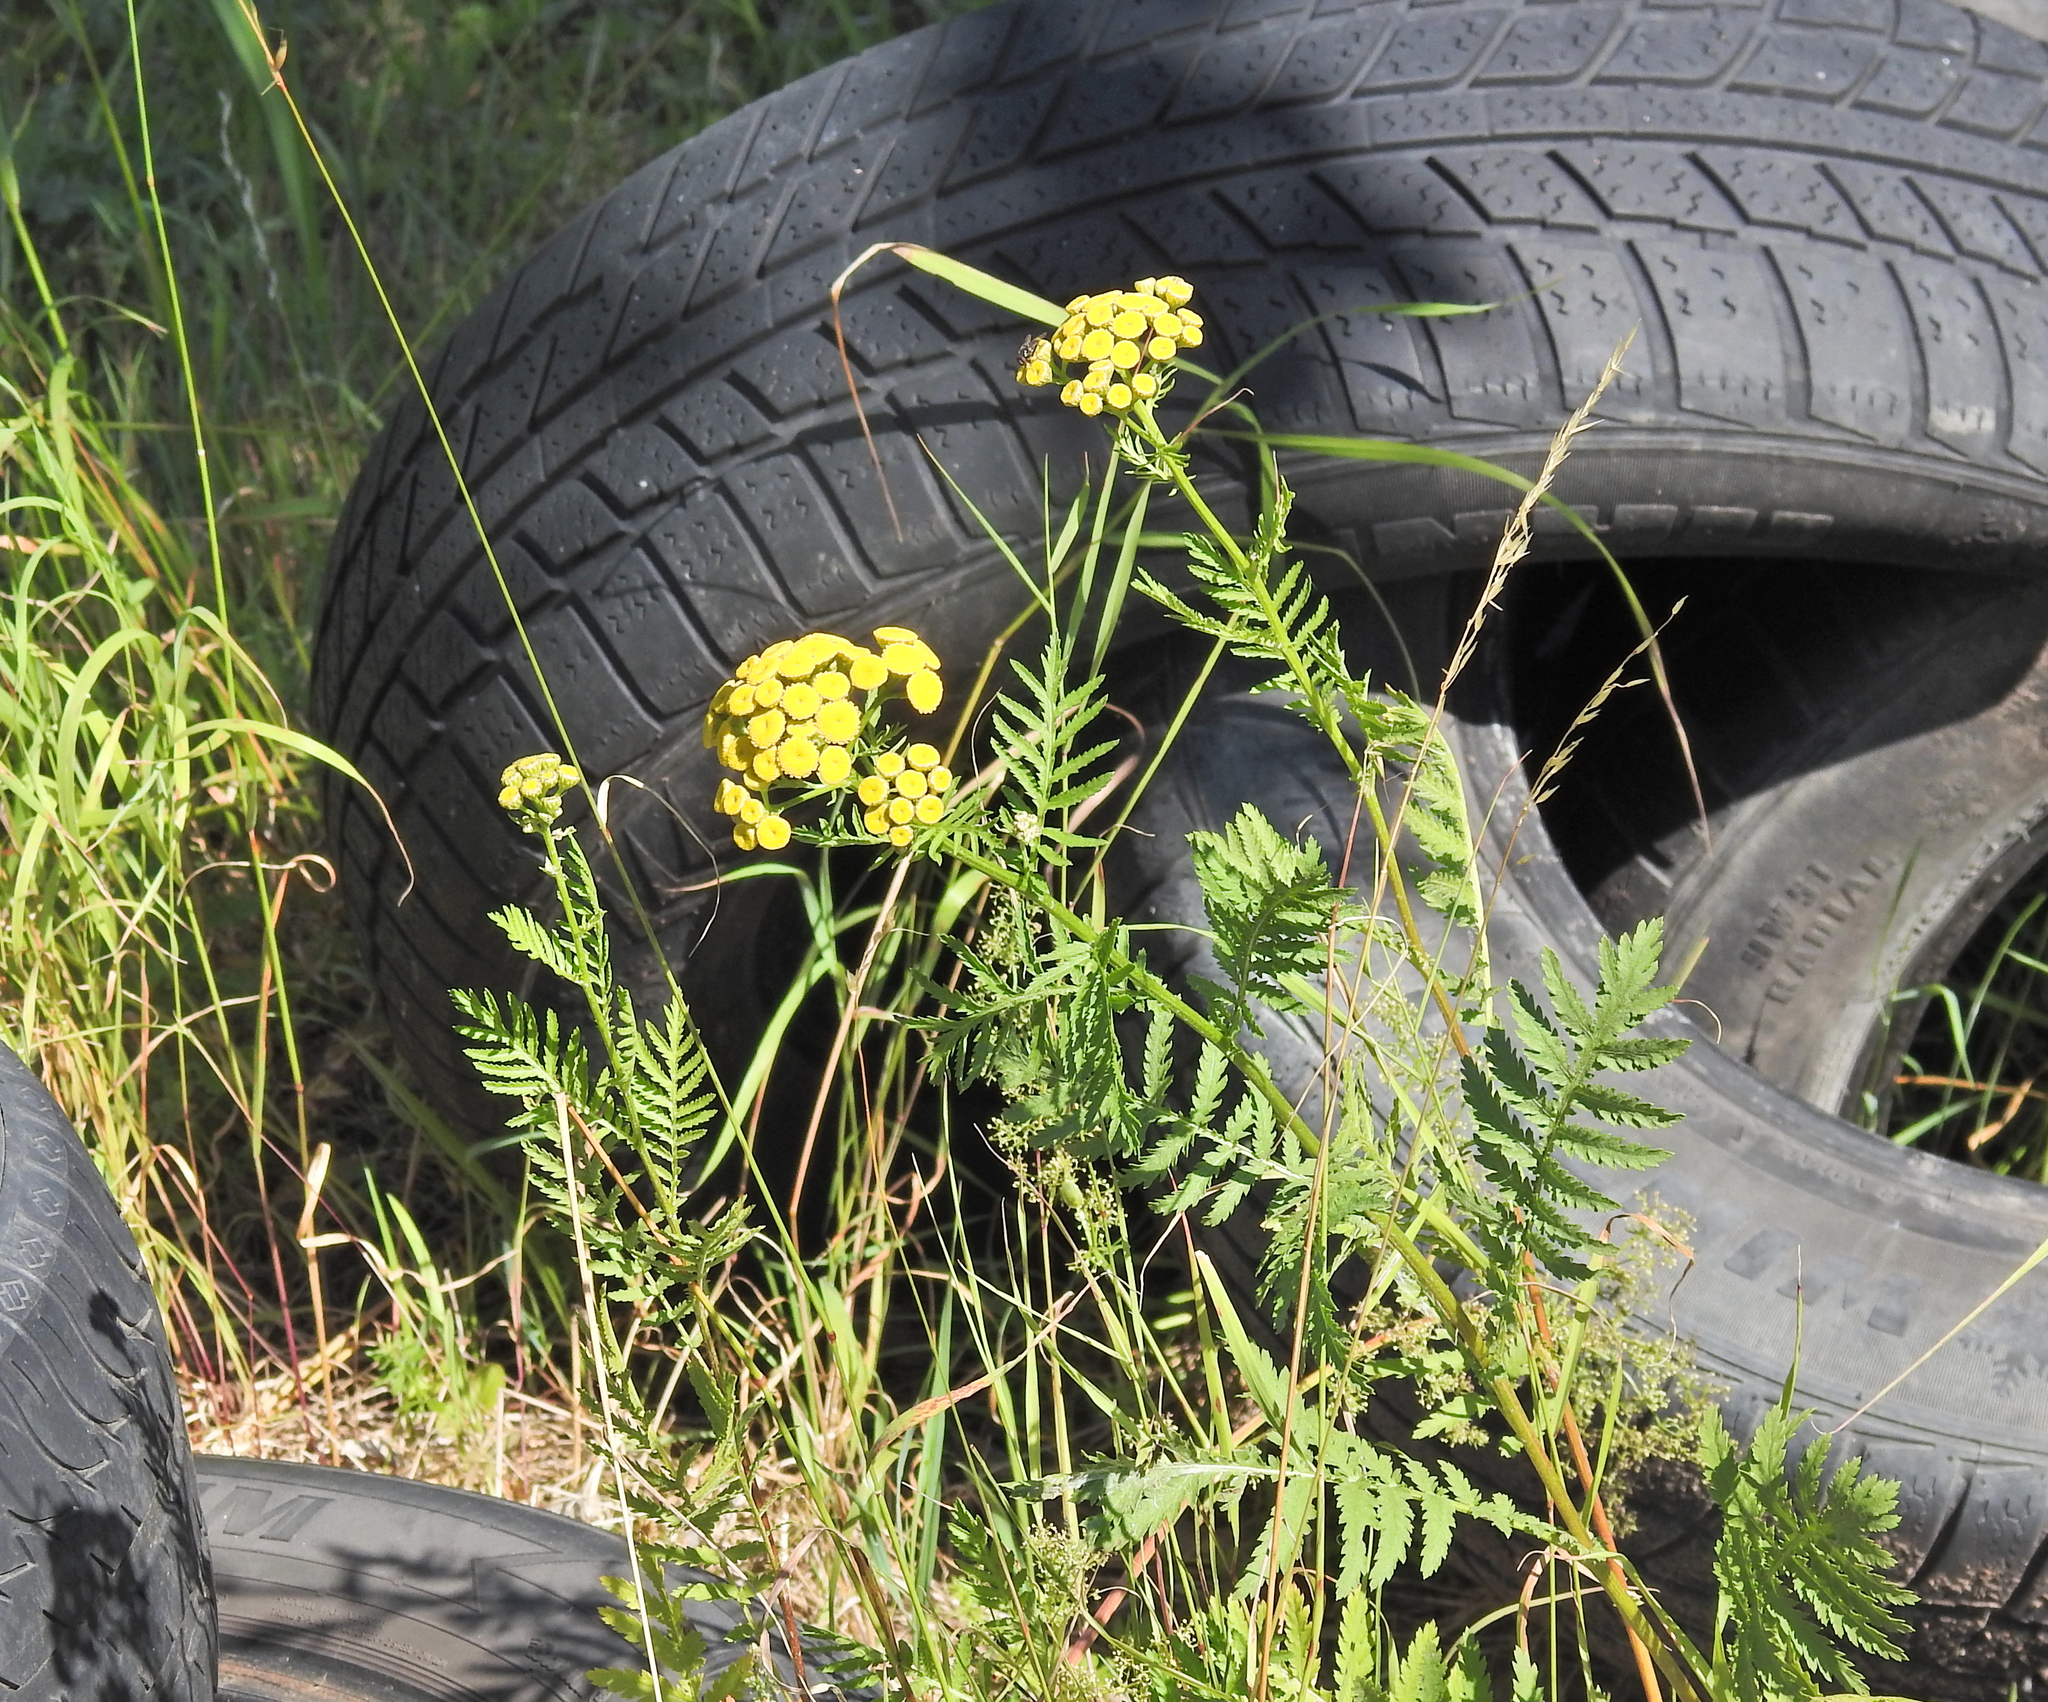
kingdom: Plantae
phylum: Tracheophyta
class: Magnoliopsida
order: Asterales
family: Asteraceae
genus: Tanacetum
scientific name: Tanacetum vulgare
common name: Common tansy
